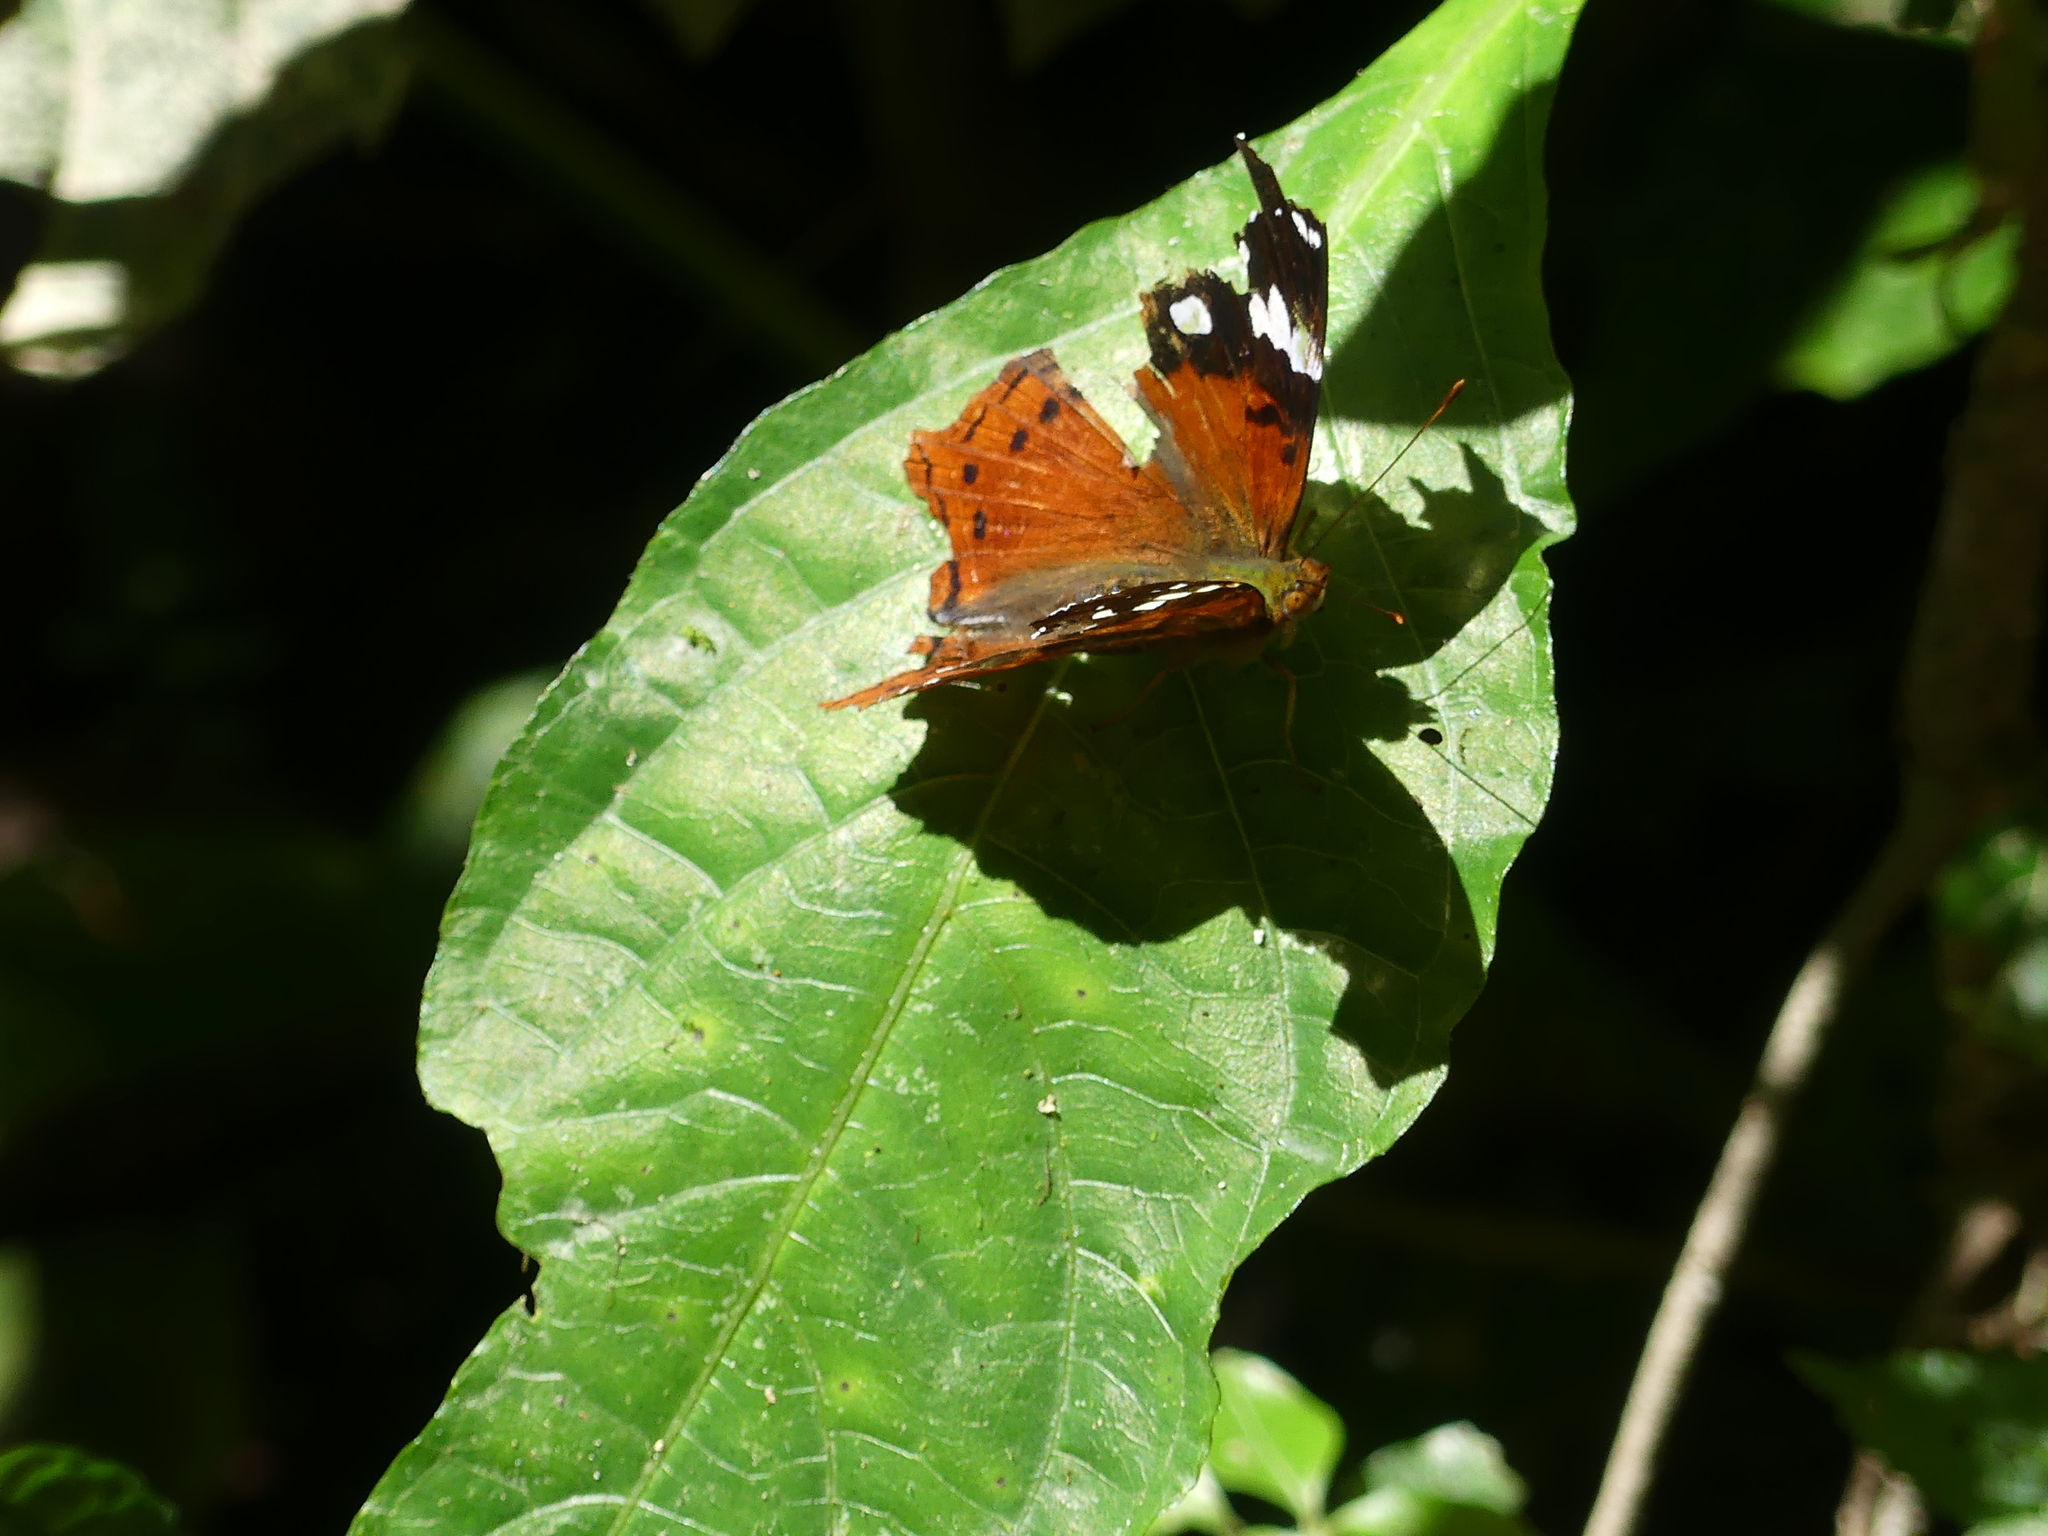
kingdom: Animalia
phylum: Arthropoda
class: Insecta
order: Lepidoptera
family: Nymphalidae
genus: Hypanartia
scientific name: Hypanartia trimaculata
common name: Reddish mapwing
